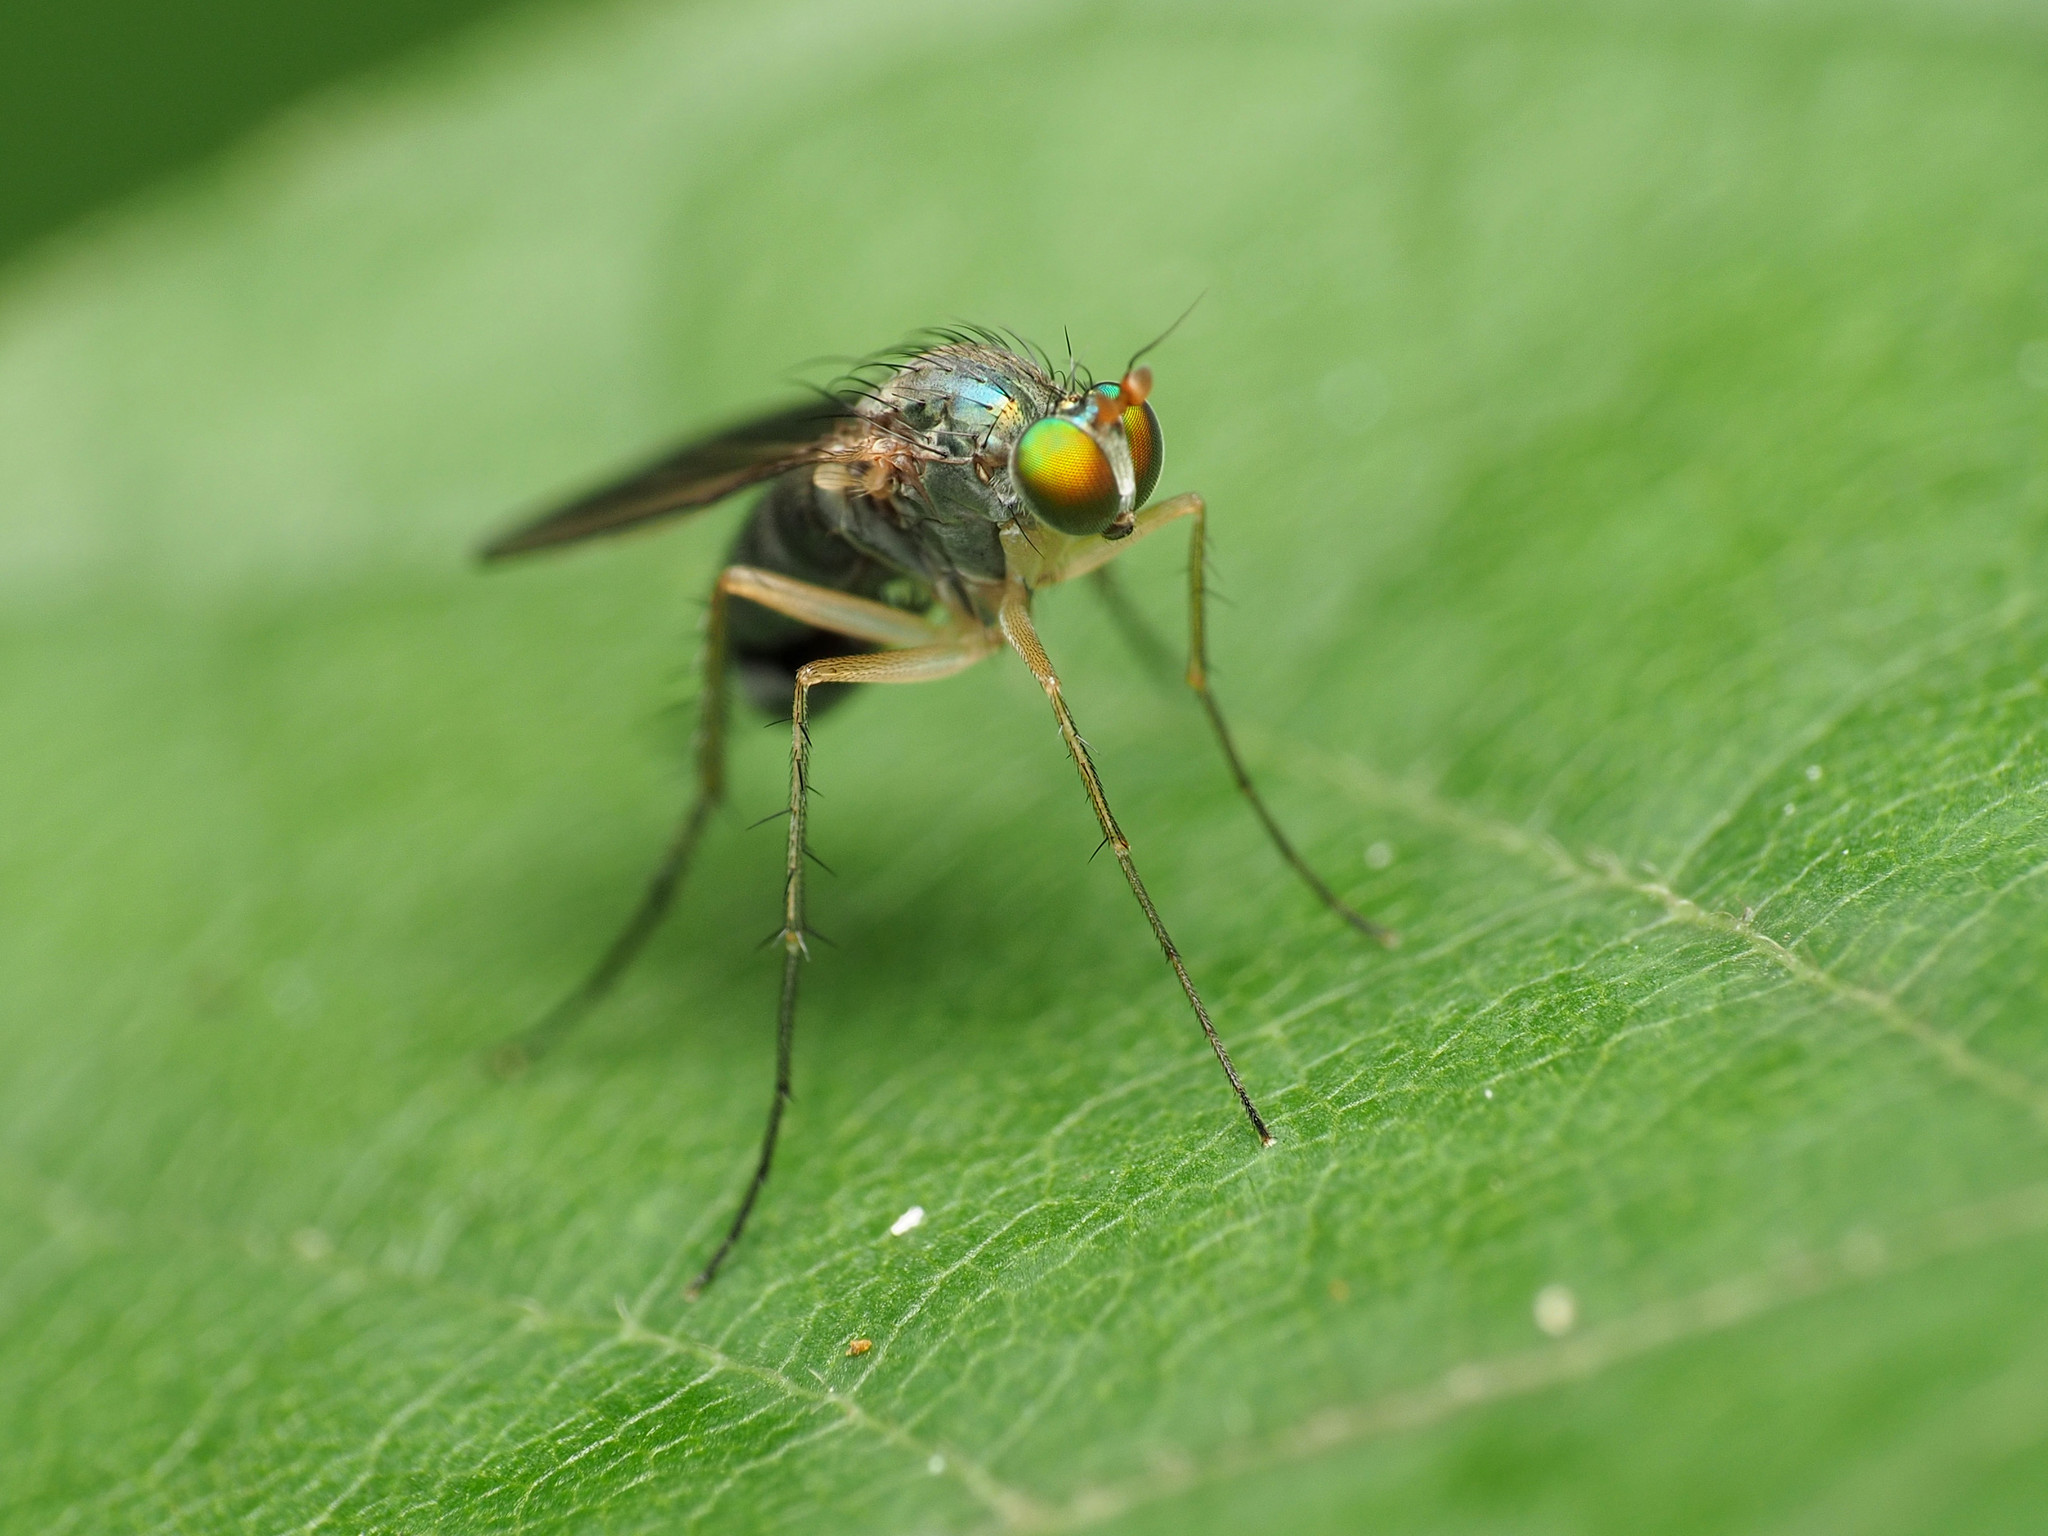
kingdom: Animalia
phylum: Arthropoda
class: Insecta
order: Diptera
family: Dolichopodidae
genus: Dolichopus
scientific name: Dolichopus
